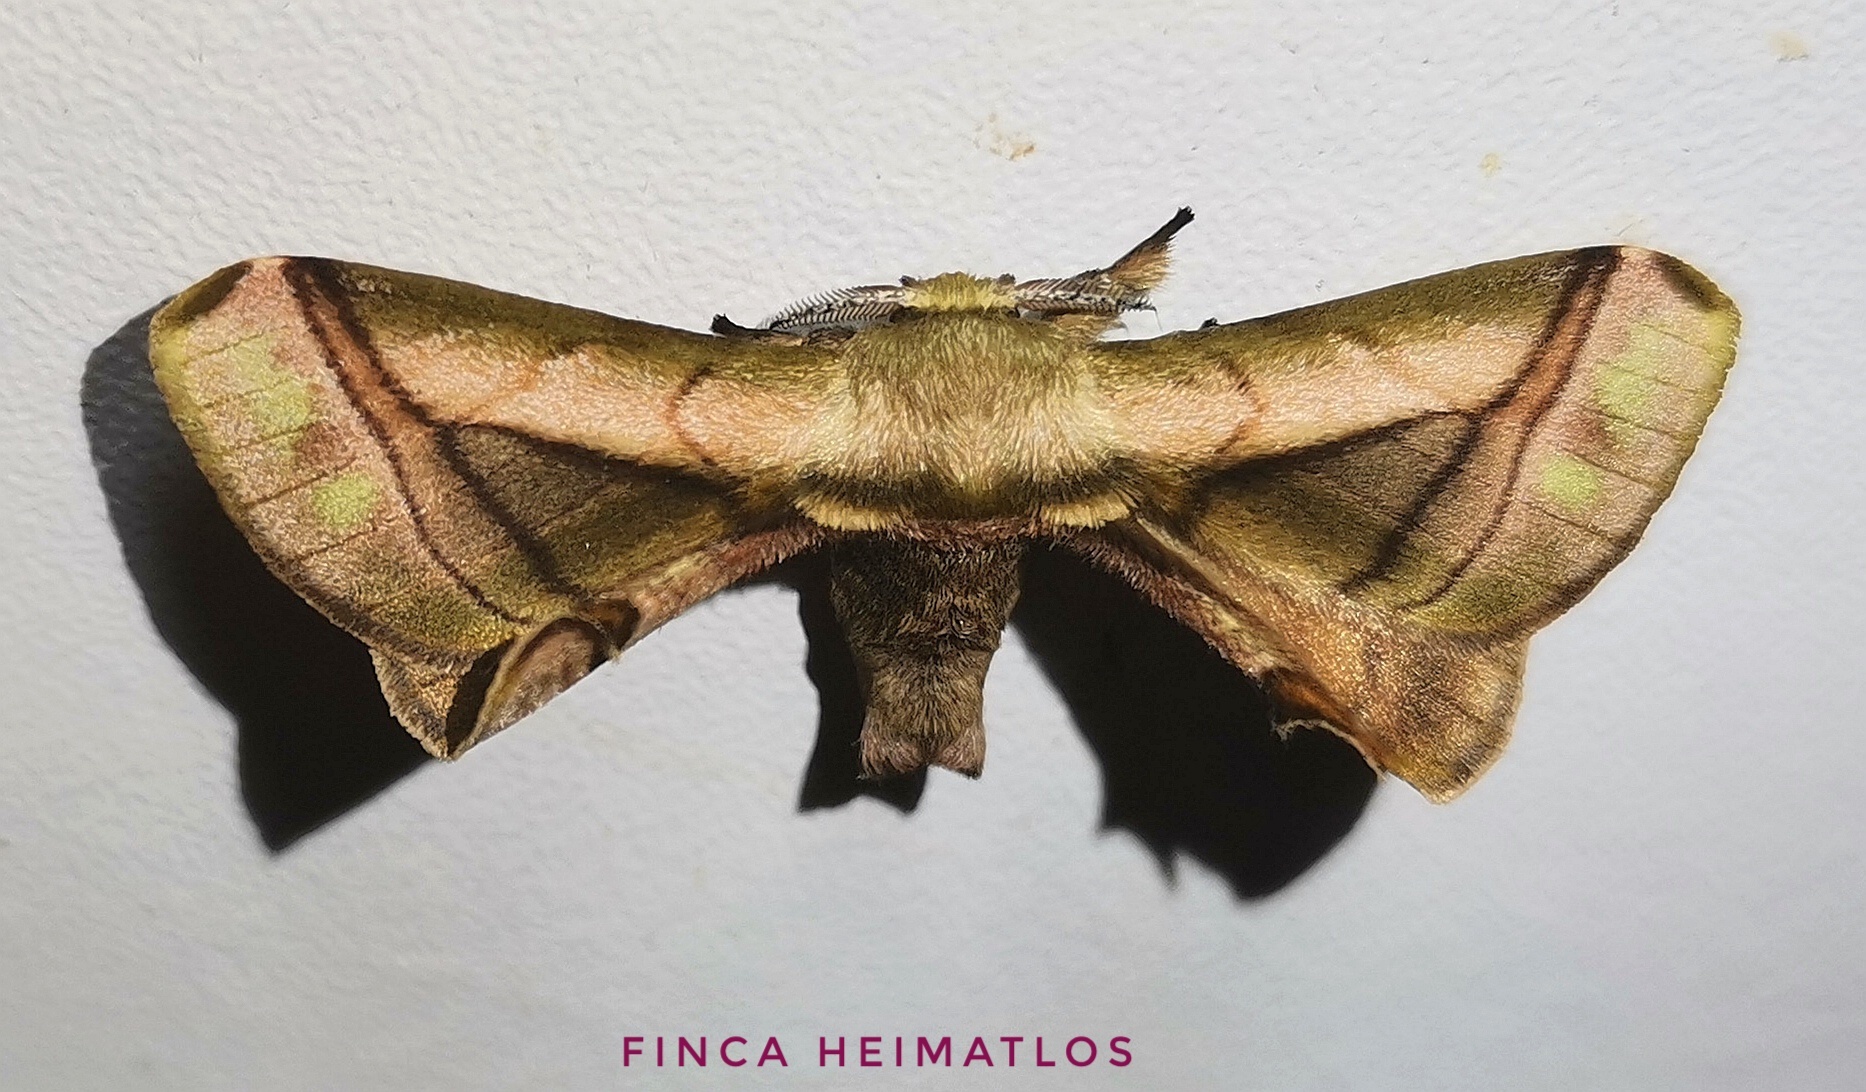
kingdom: Animalia
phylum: Arthropoda
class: Insecta
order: Lepidoptera
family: Bombycidae
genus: Epia
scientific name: Epia lebethra
